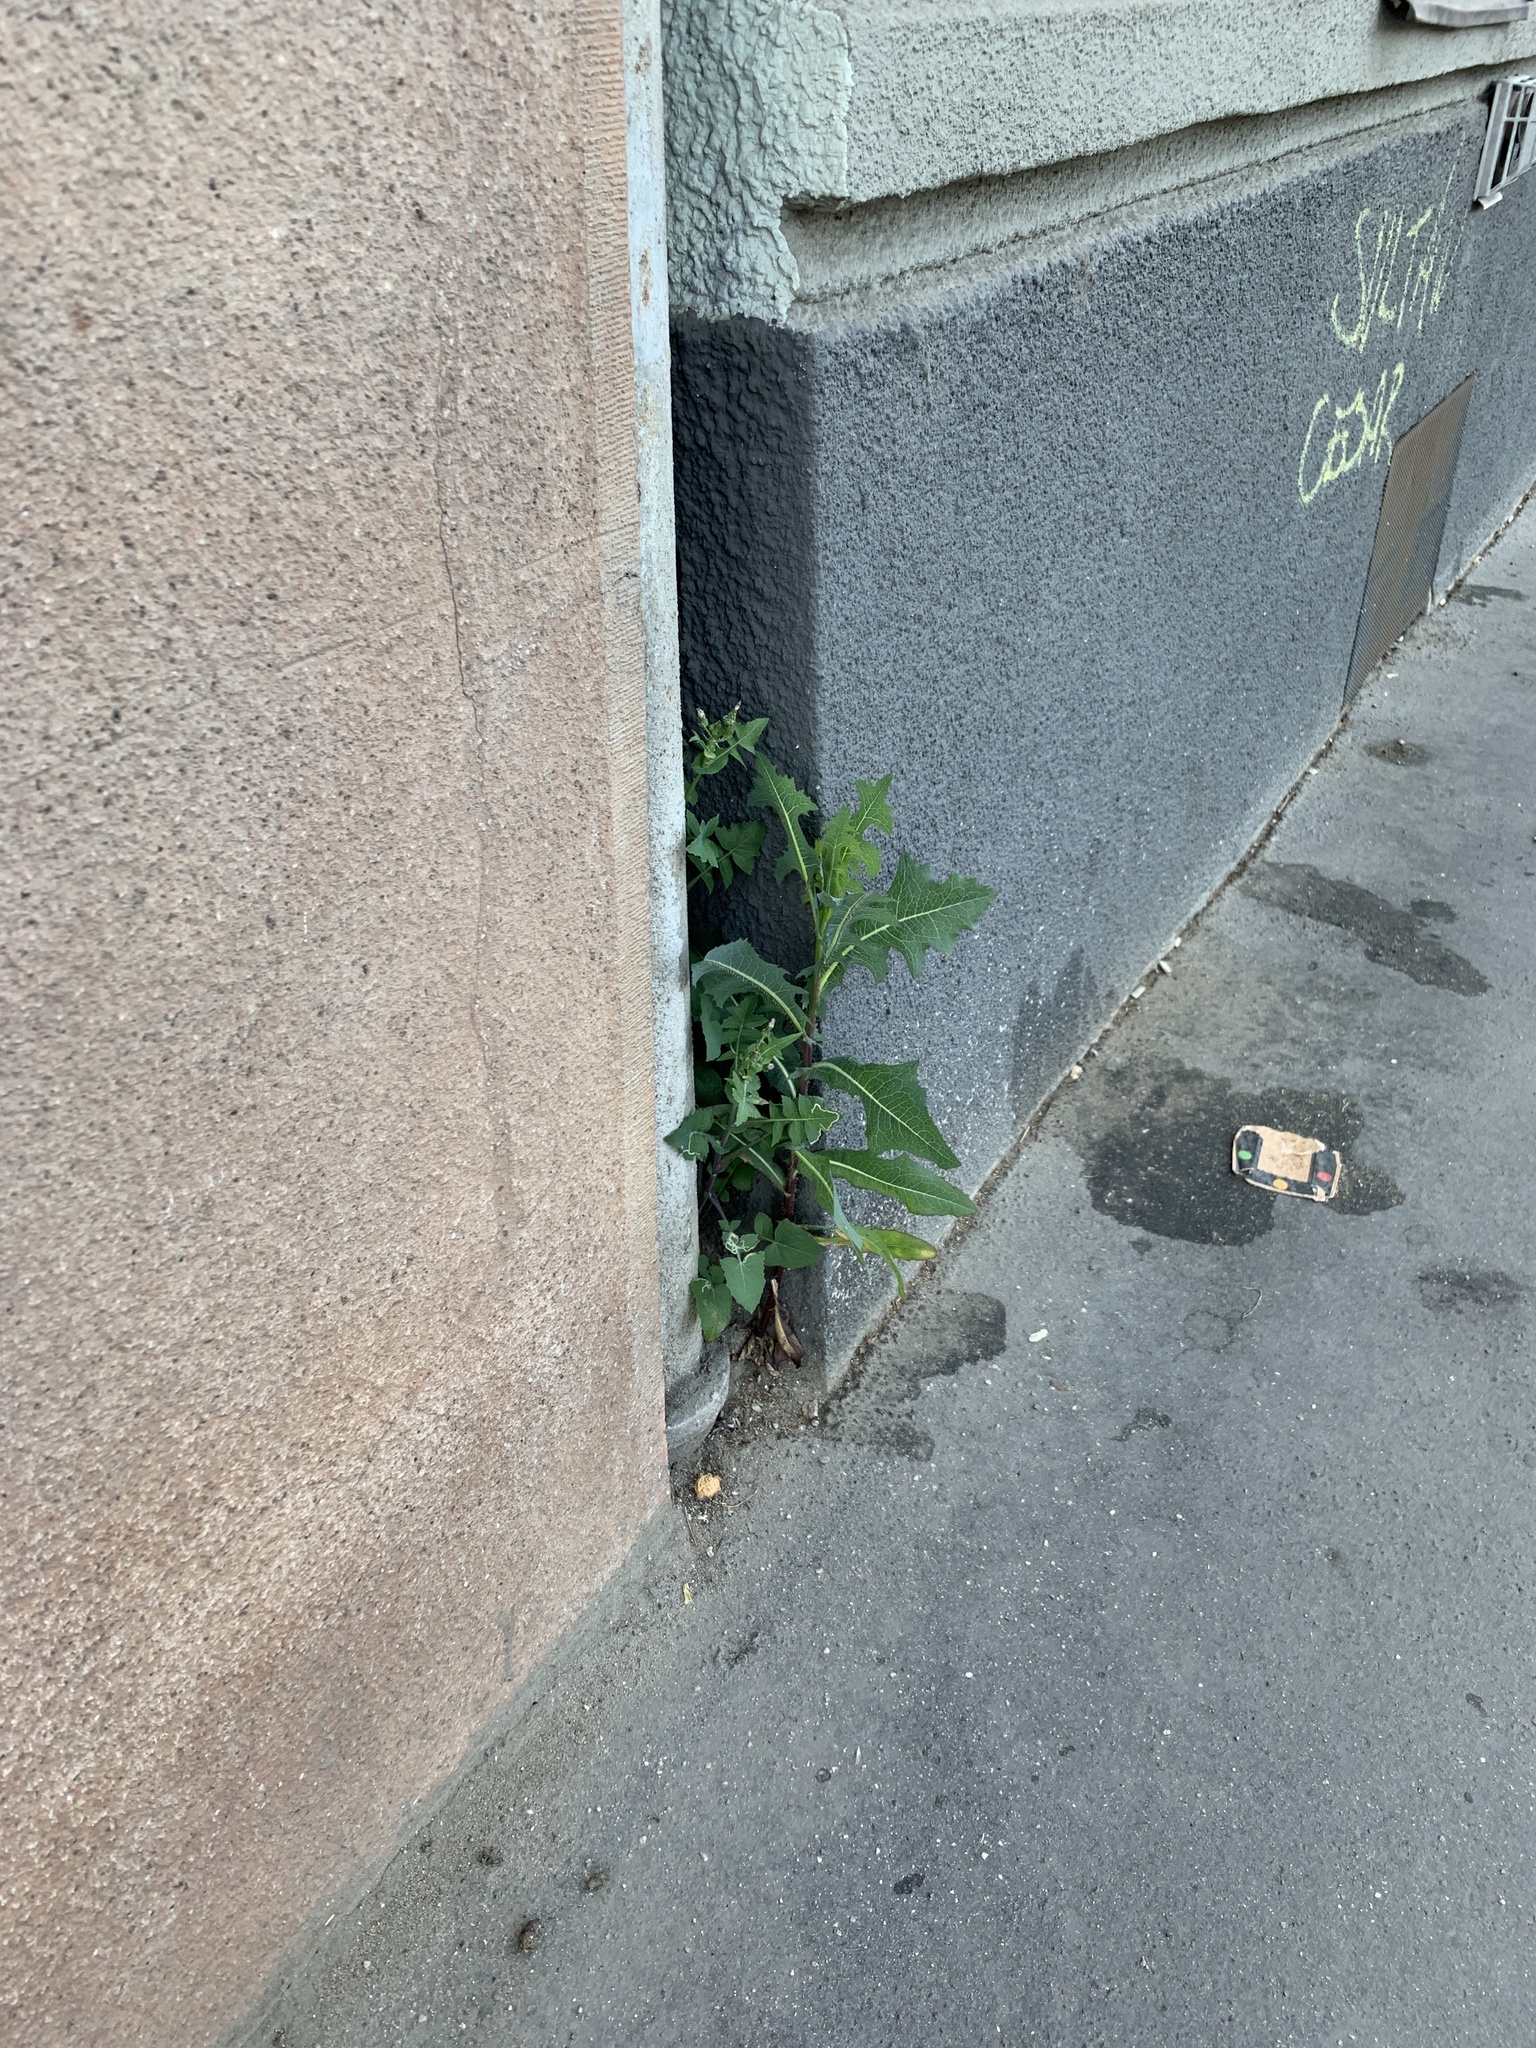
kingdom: Plantae
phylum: Tracheophyta
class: Magnoliopsida
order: Asterales
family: Asteraceae
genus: Lactuca
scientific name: Lactuca serriola
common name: Prickly lettuce
